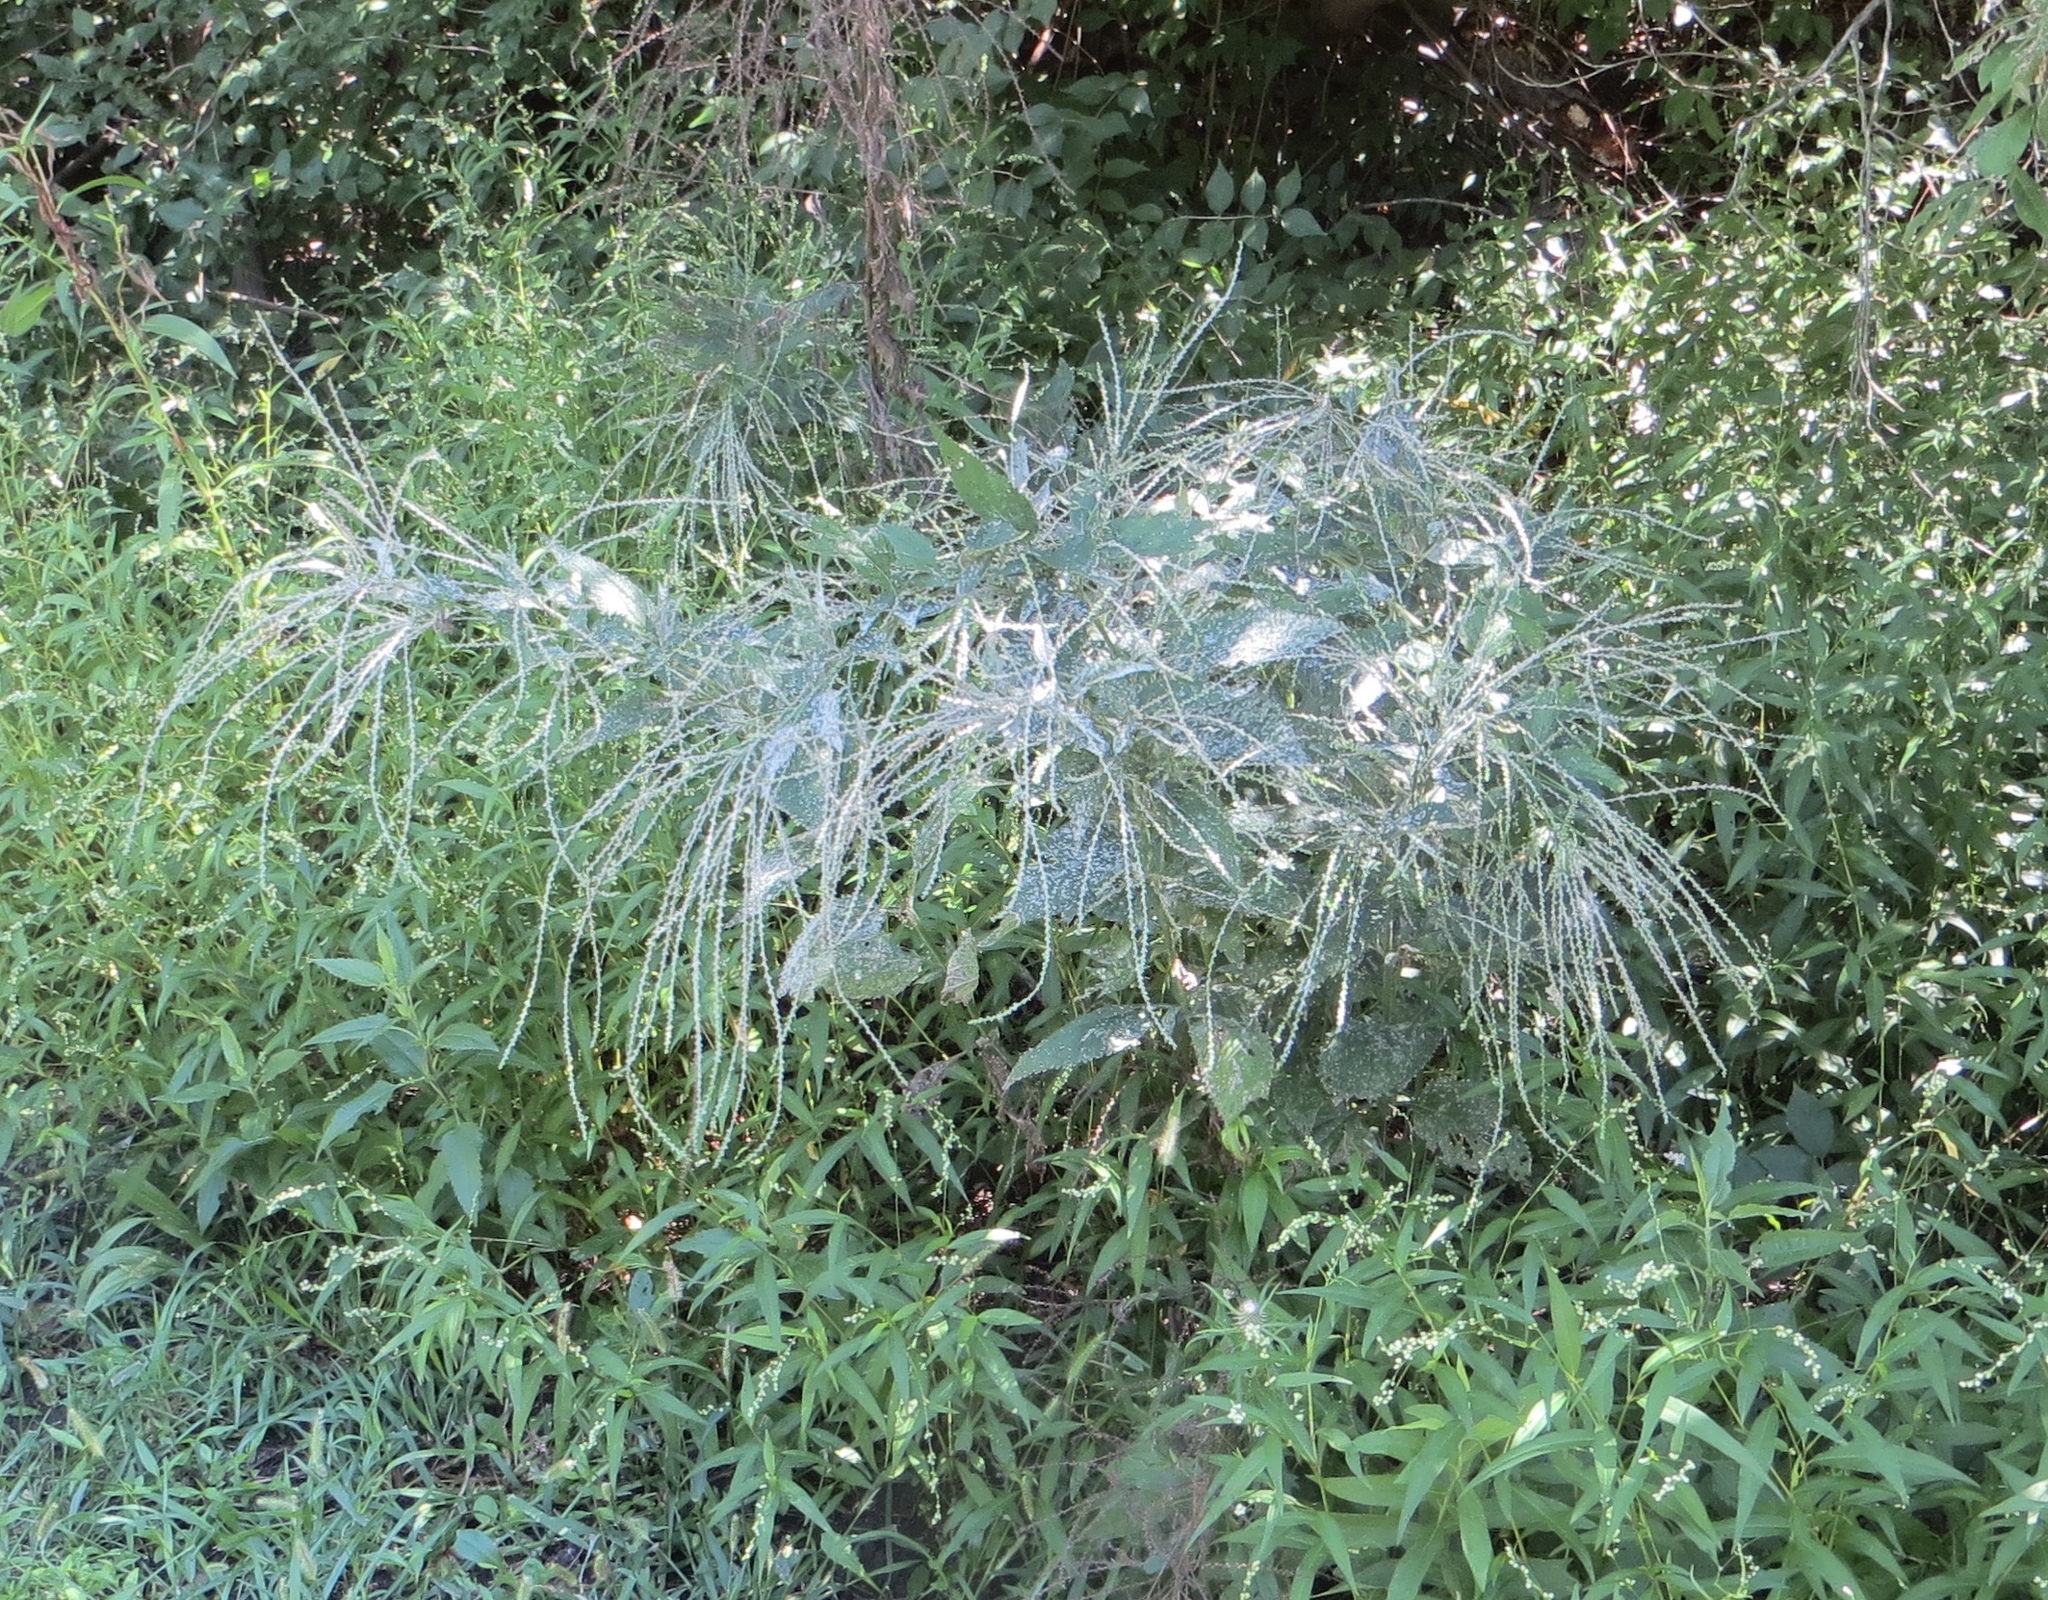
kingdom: Plantae
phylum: Tracheophyta
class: Magnoliopsida
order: Lamiales
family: Verbenaceae
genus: Verbena
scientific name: Verbena urticifolia
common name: Nettle-leaved vervain
